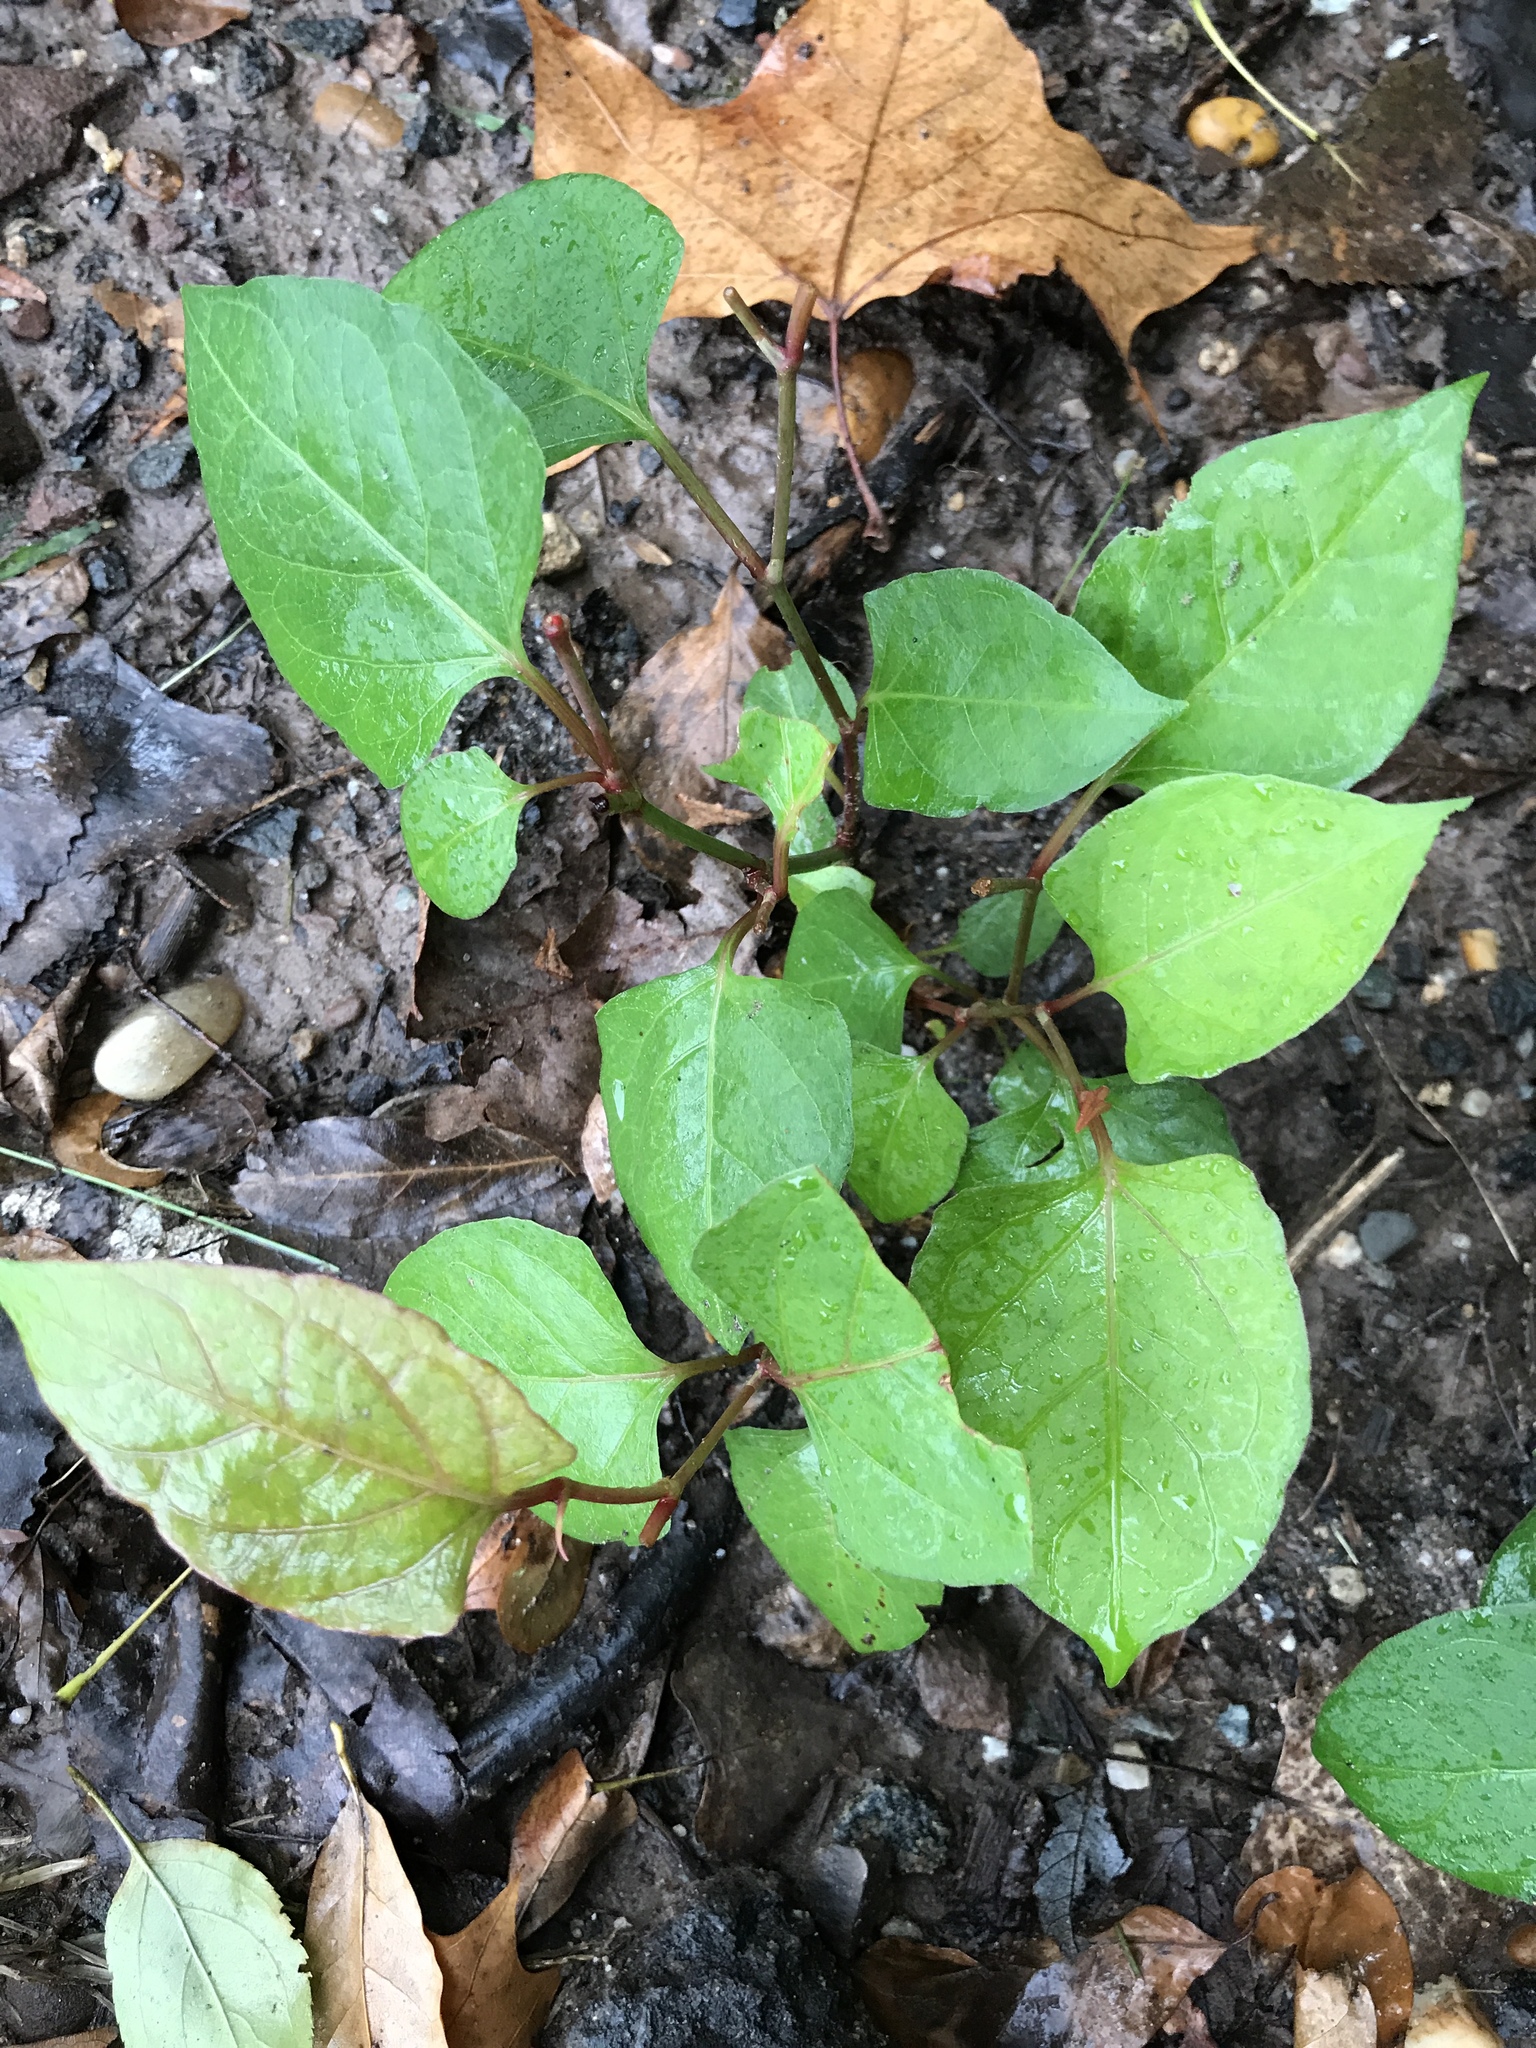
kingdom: Plantae
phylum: Tracheophyta
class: Magnoliopsida
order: Caryophyllales
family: Polygonaceae
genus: Reynoutria
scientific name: Reynoutria japonica
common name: Japanese knotweed
